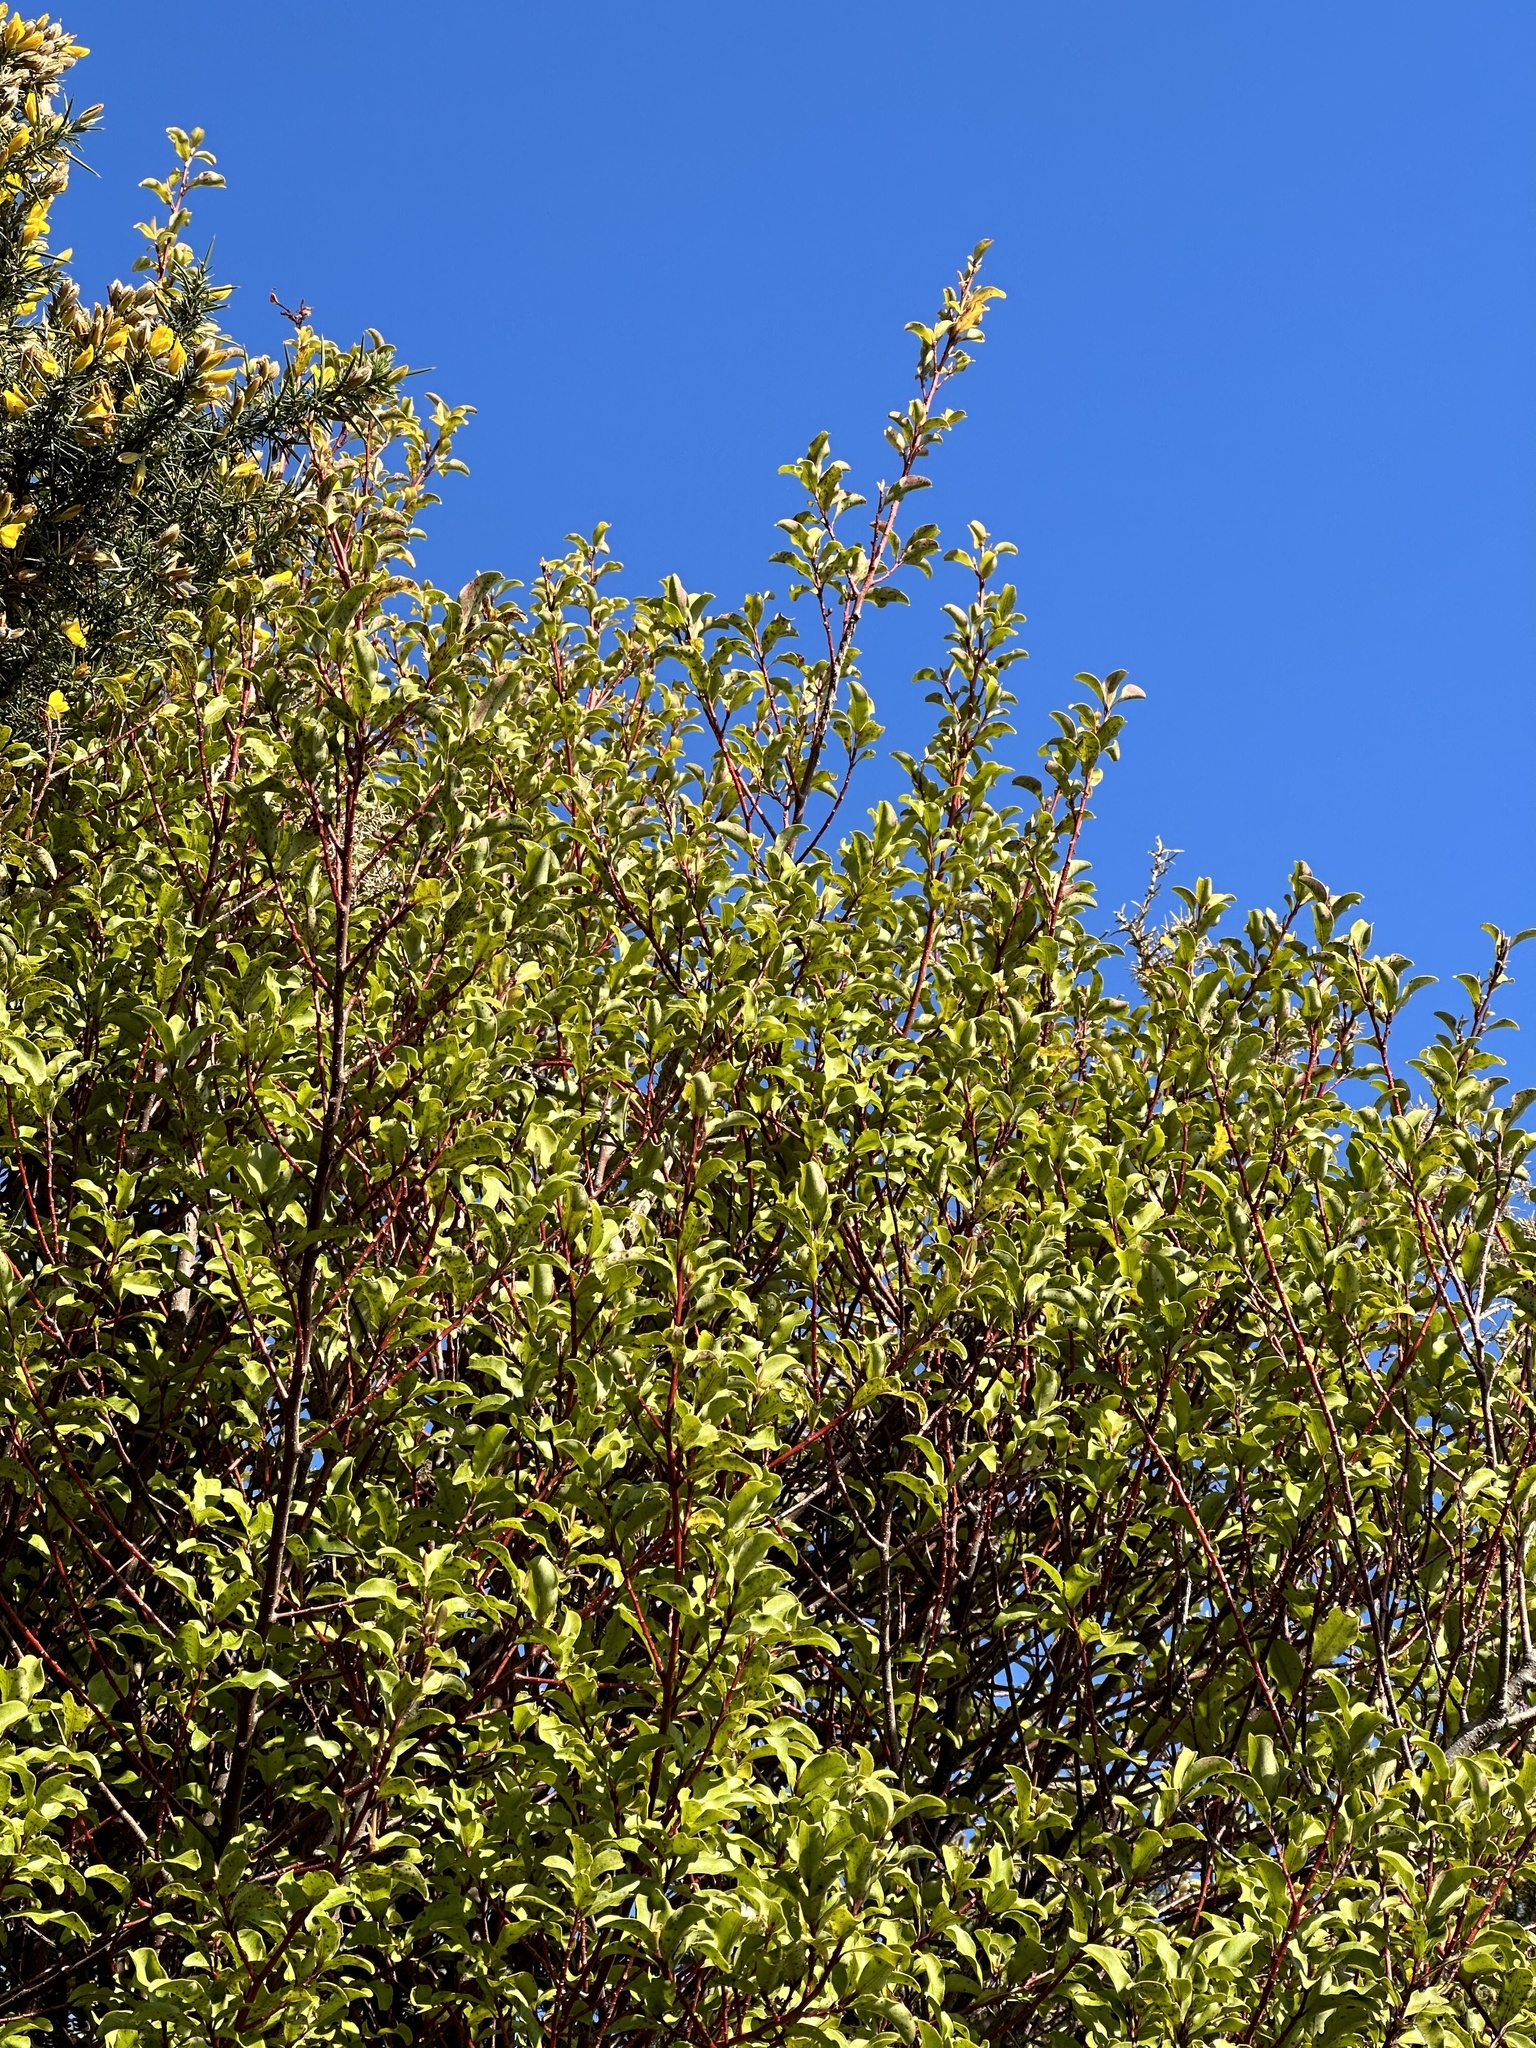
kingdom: Plantae
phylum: Tracheophyta
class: Magnoliopsida
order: Ericales
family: Primulaceae
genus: Myrsine
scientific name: Myrsine australis
